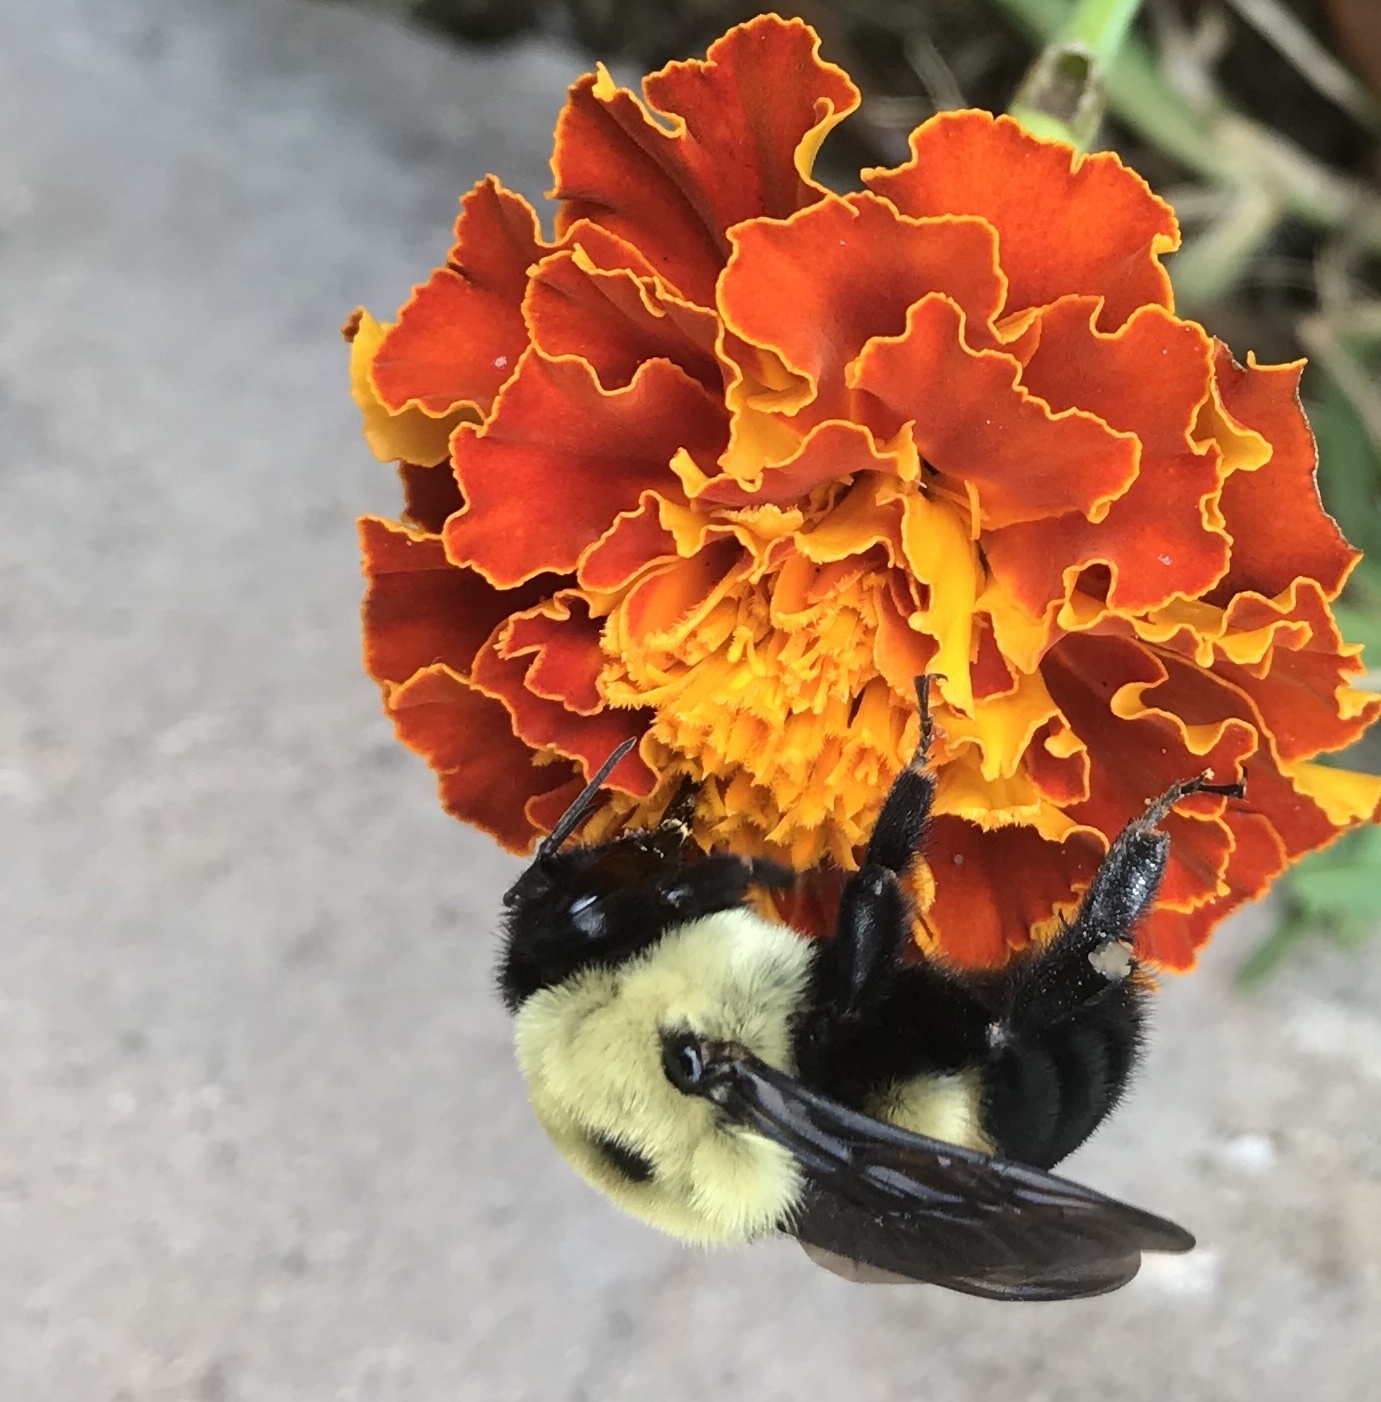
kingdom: Animalia
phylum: Arthropoda
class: Insecta
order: Hymenoptera
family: Apidae
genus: Bombus
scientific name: Bombus griseocollis
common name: Brown-belted bumble bee
